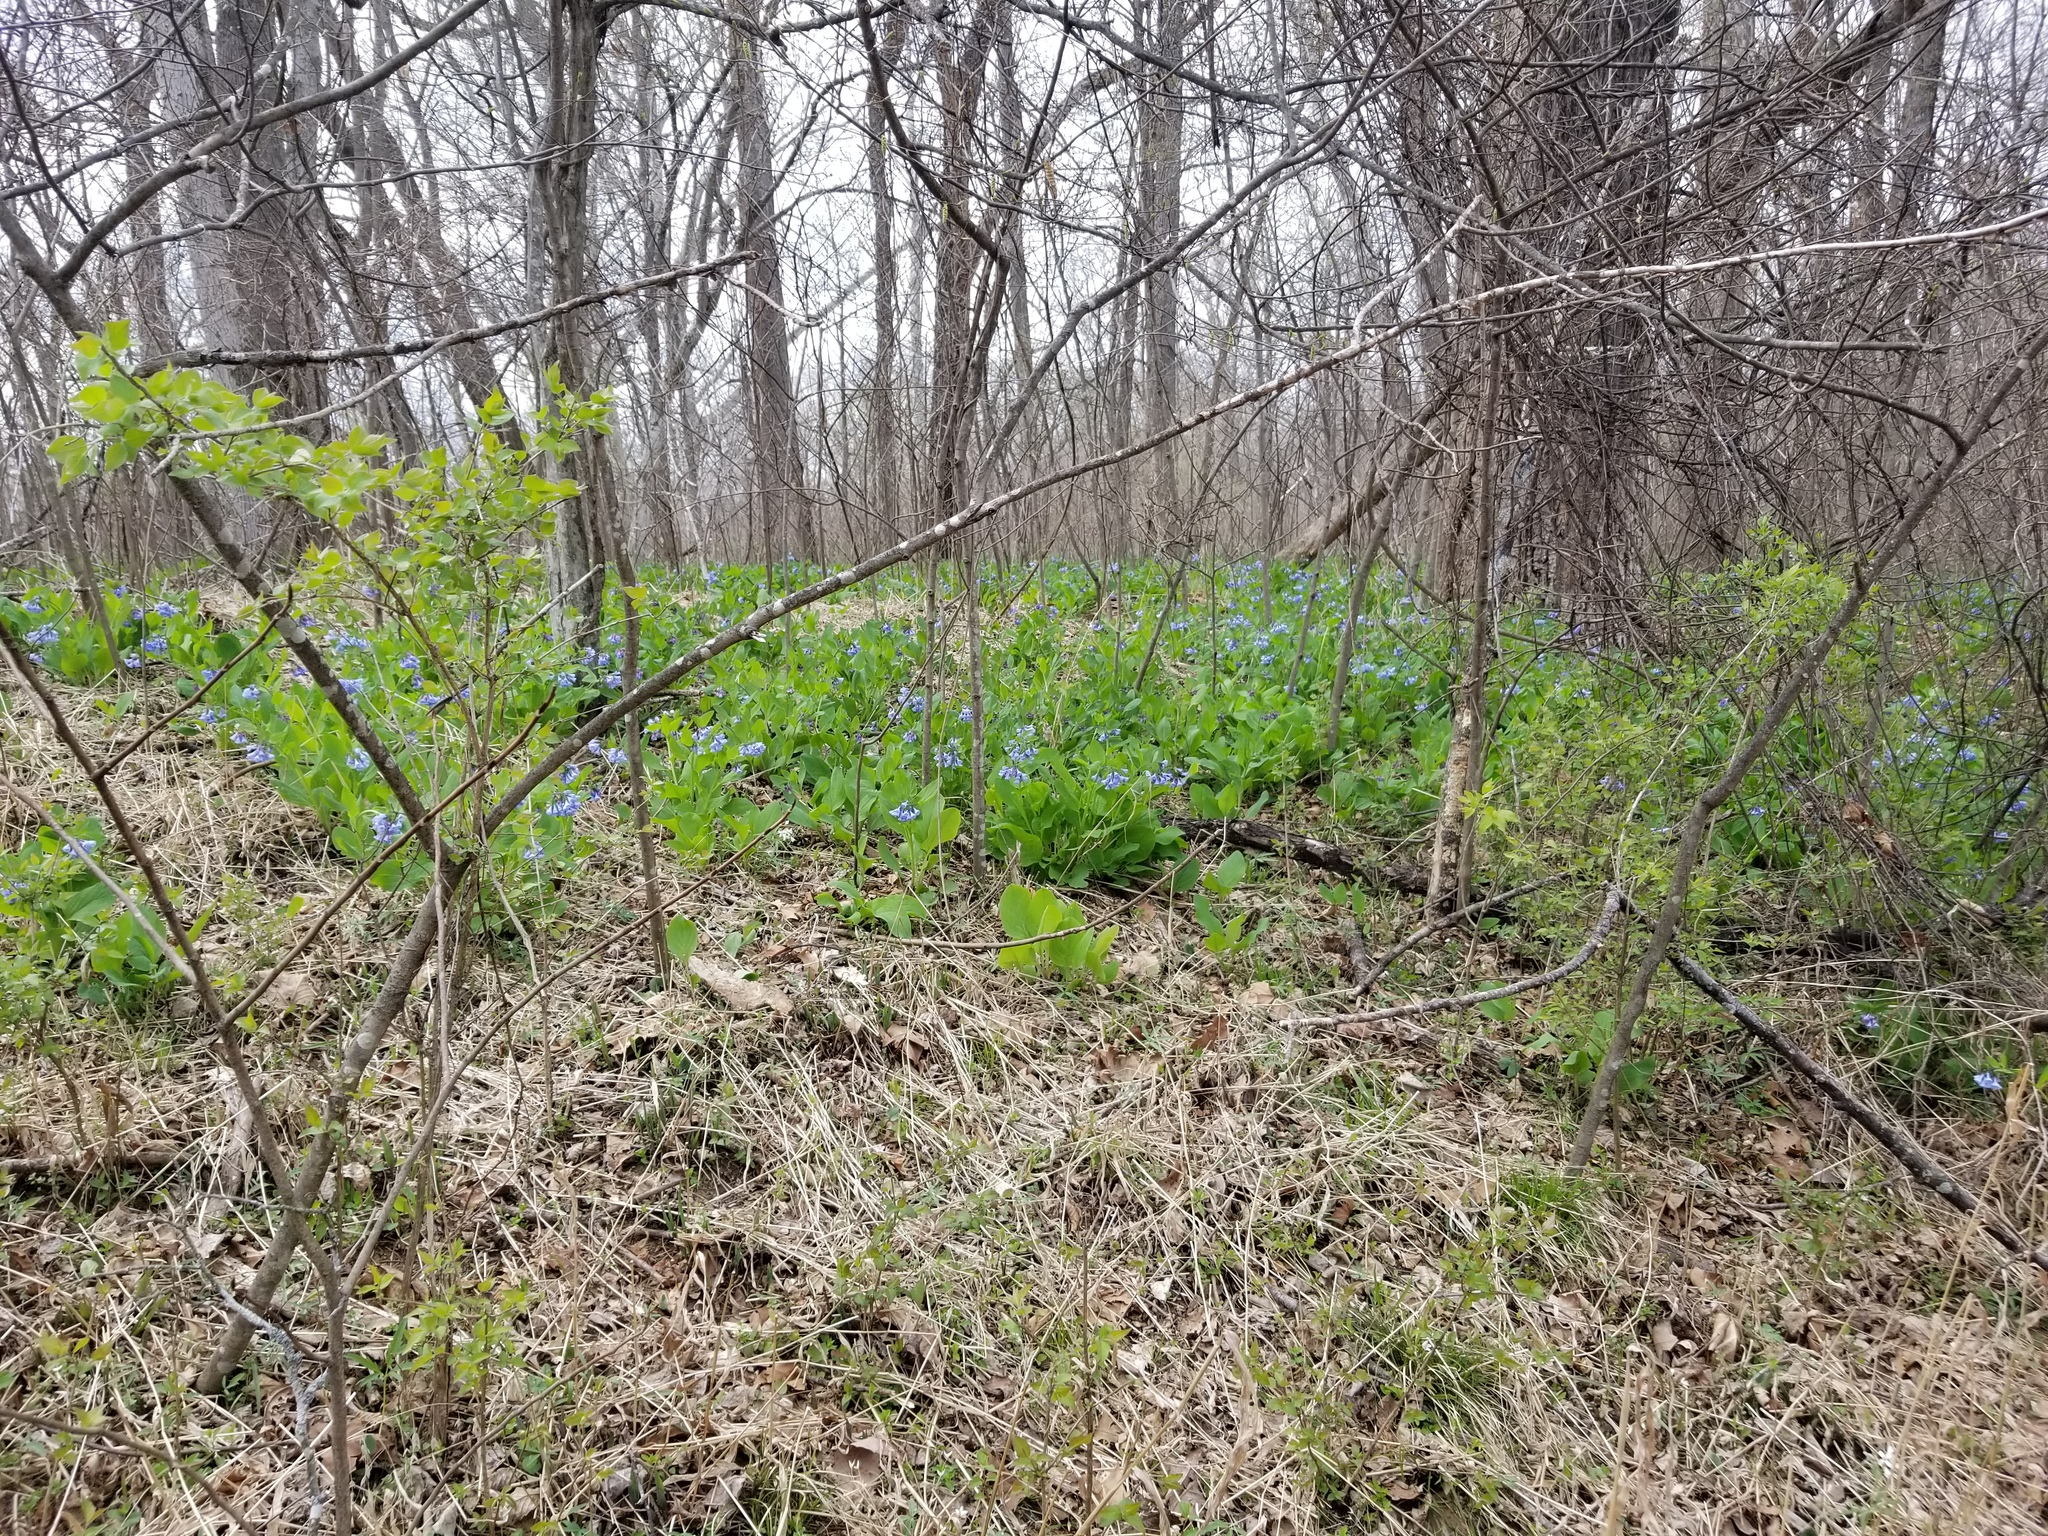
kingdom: Plantae
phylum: Tracheophyta
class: Magnoliopsida
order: Boraginales
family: Boraginaceae
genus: Mertensia
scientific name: Mertensia virginica
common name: Virginia bluebells
